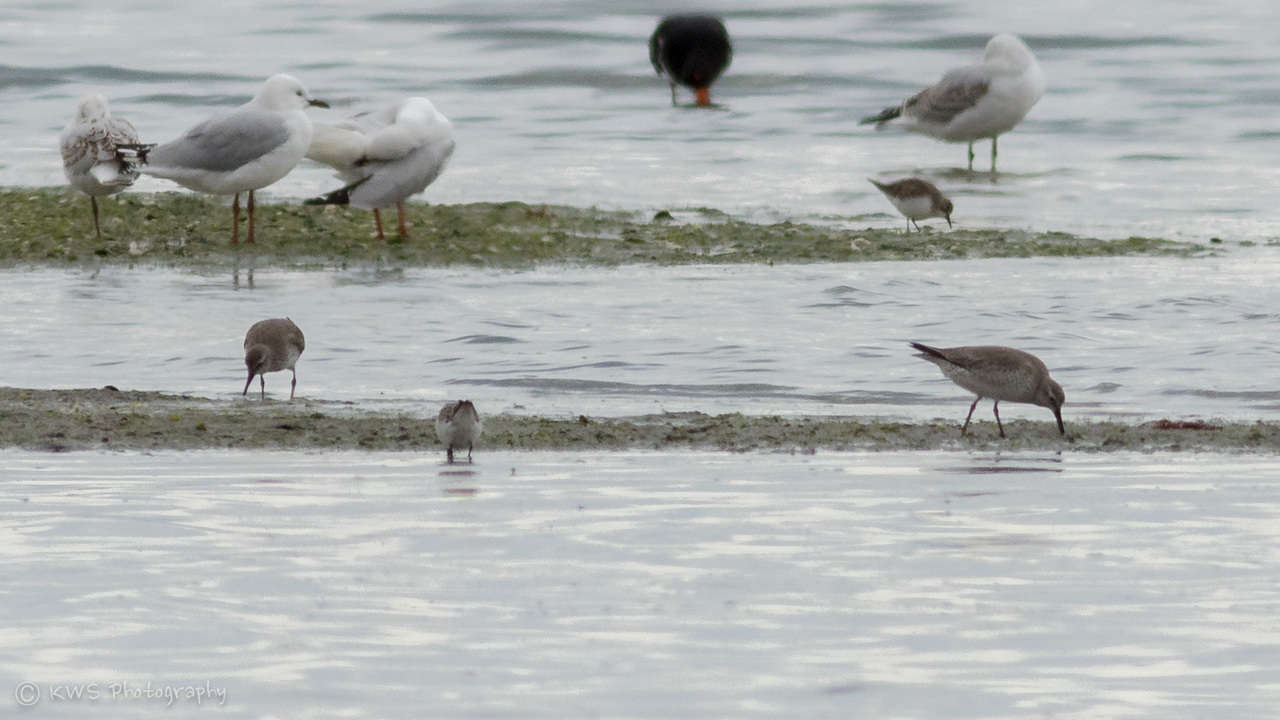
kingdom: Animalia
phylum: Chordata
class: Aves
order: Charadriiformes
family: Scolopacidae
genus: Calidris
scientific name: Calidris canutus
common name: Red knot
